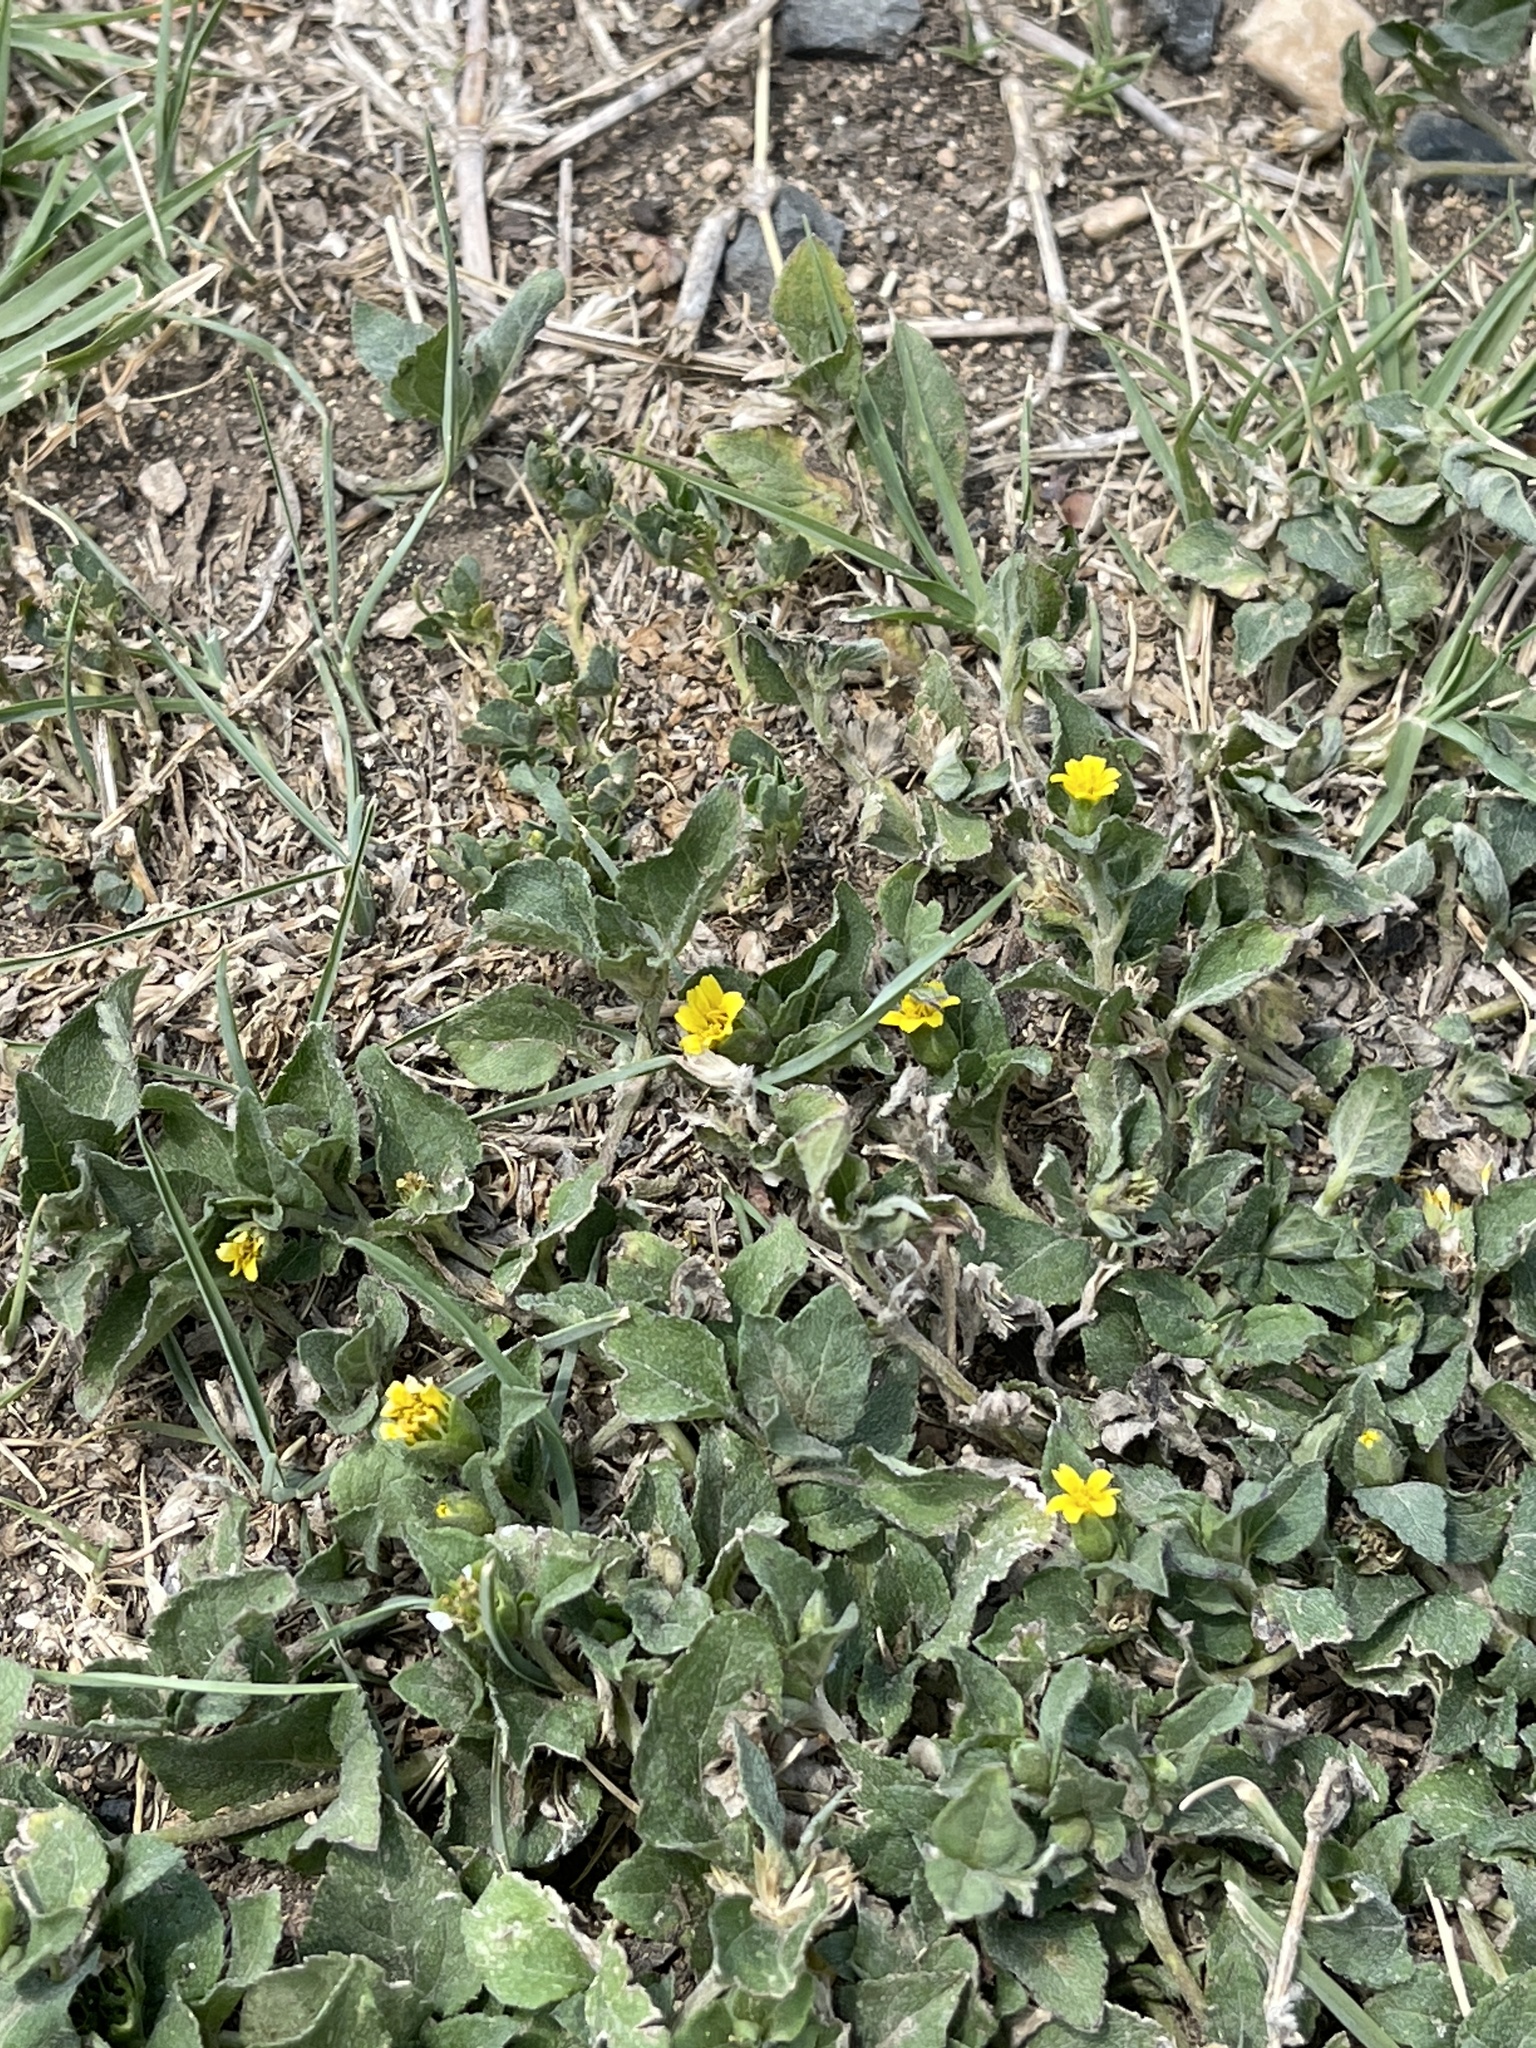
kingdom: Plantae
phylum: Tracheophyta
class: Magnoliopsida
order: Asterales
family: Asteraceae
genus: Calyptocarpus
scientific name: Calyptocarpus vialis
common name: Straggler daisy
